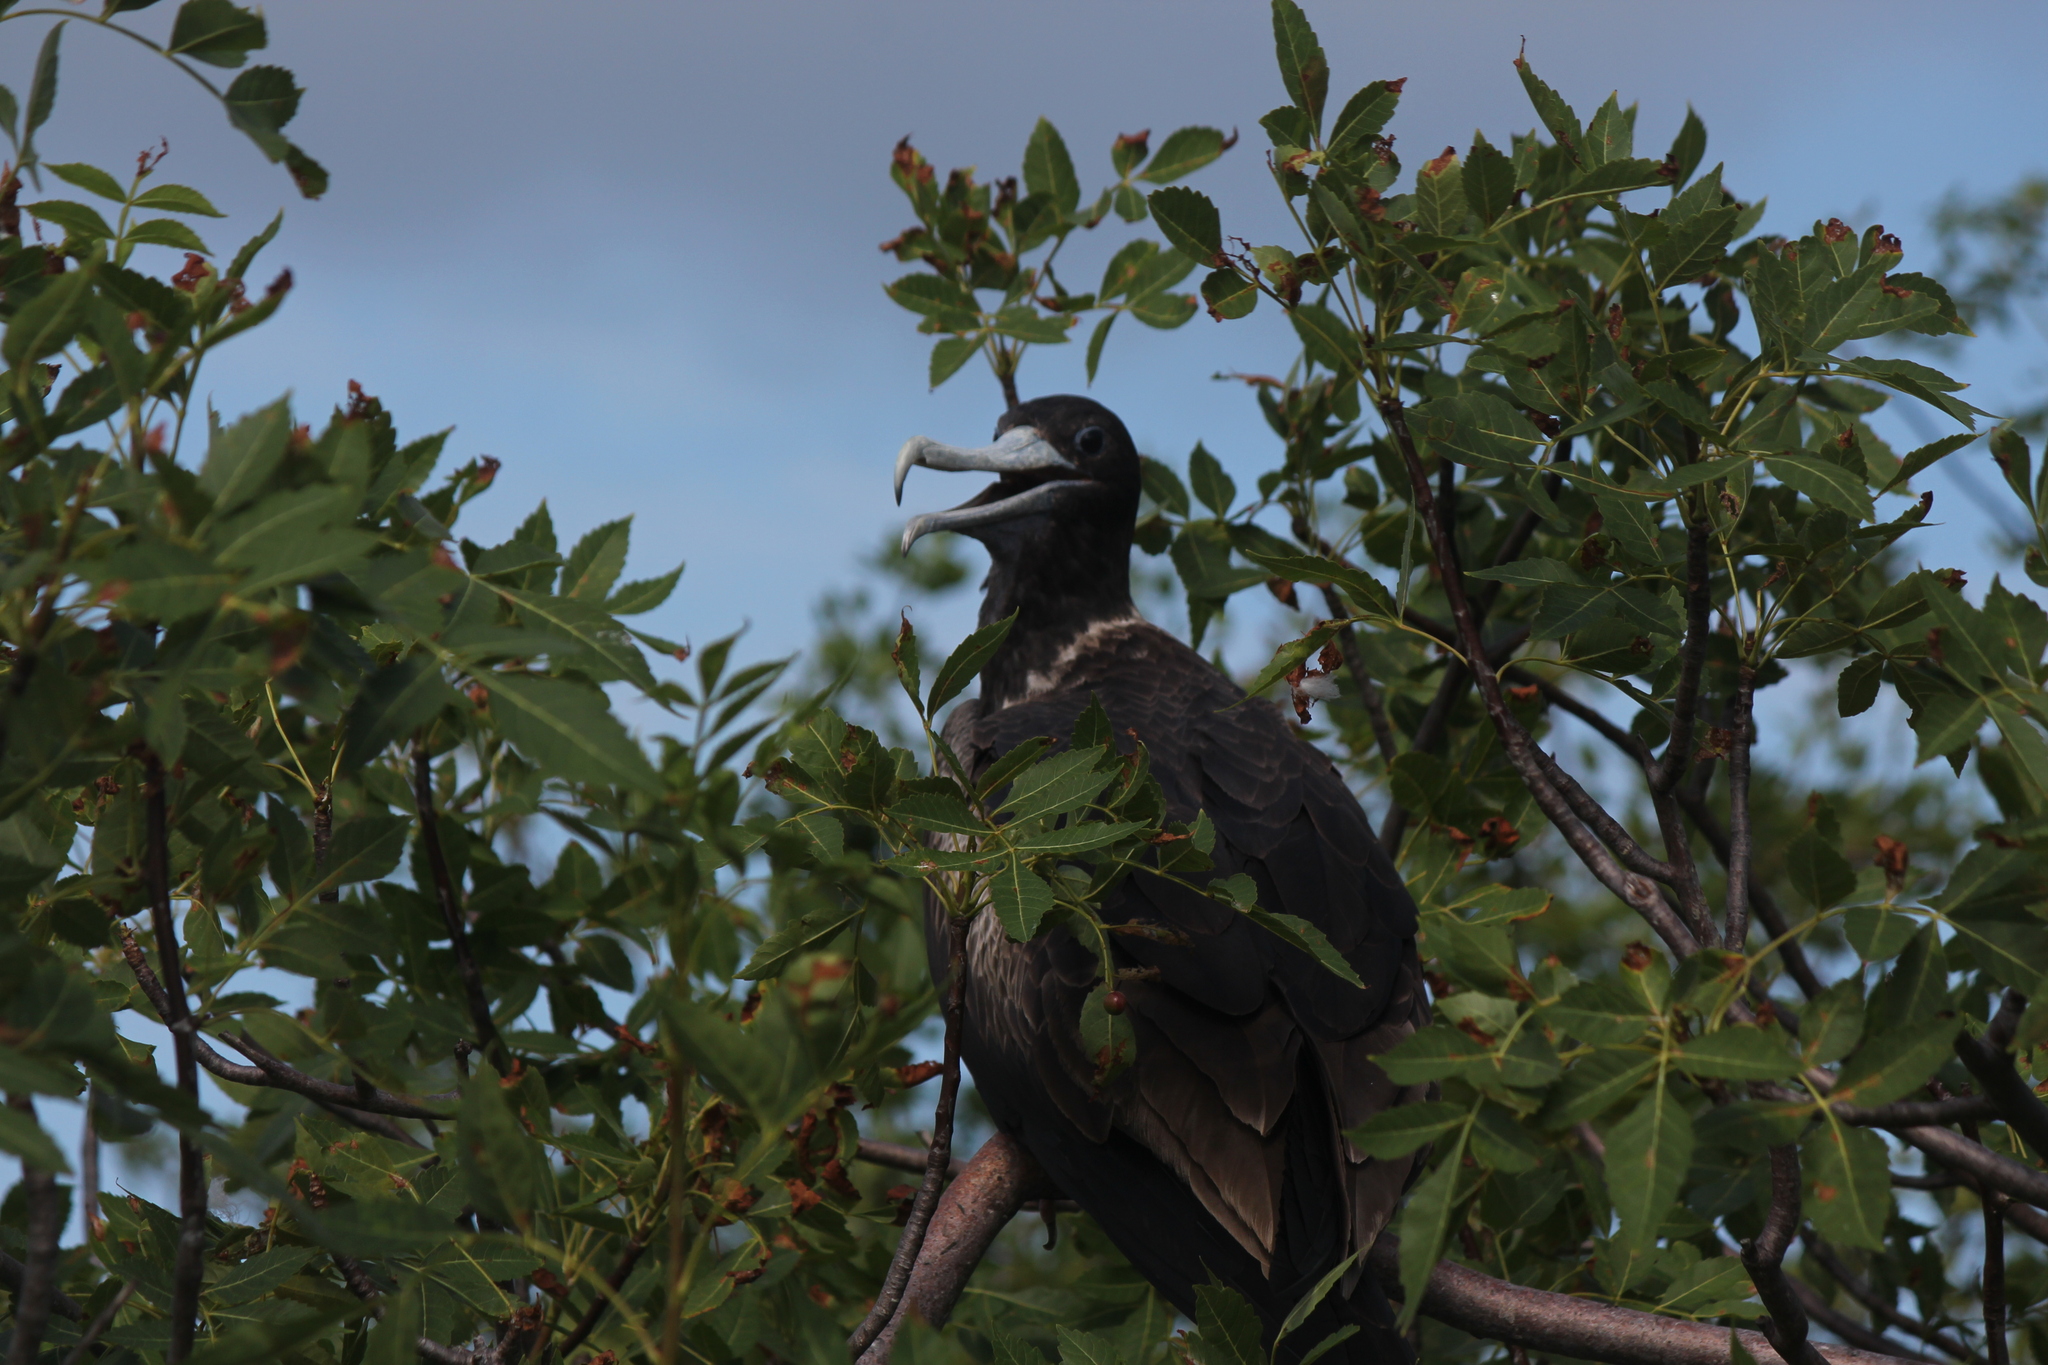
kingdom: Animalia
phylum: Chordata
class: Aves
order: Suliformes
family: Fregatidae
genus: Fregata
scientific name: Fregata magnificens
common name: Magnificent frigatebird
